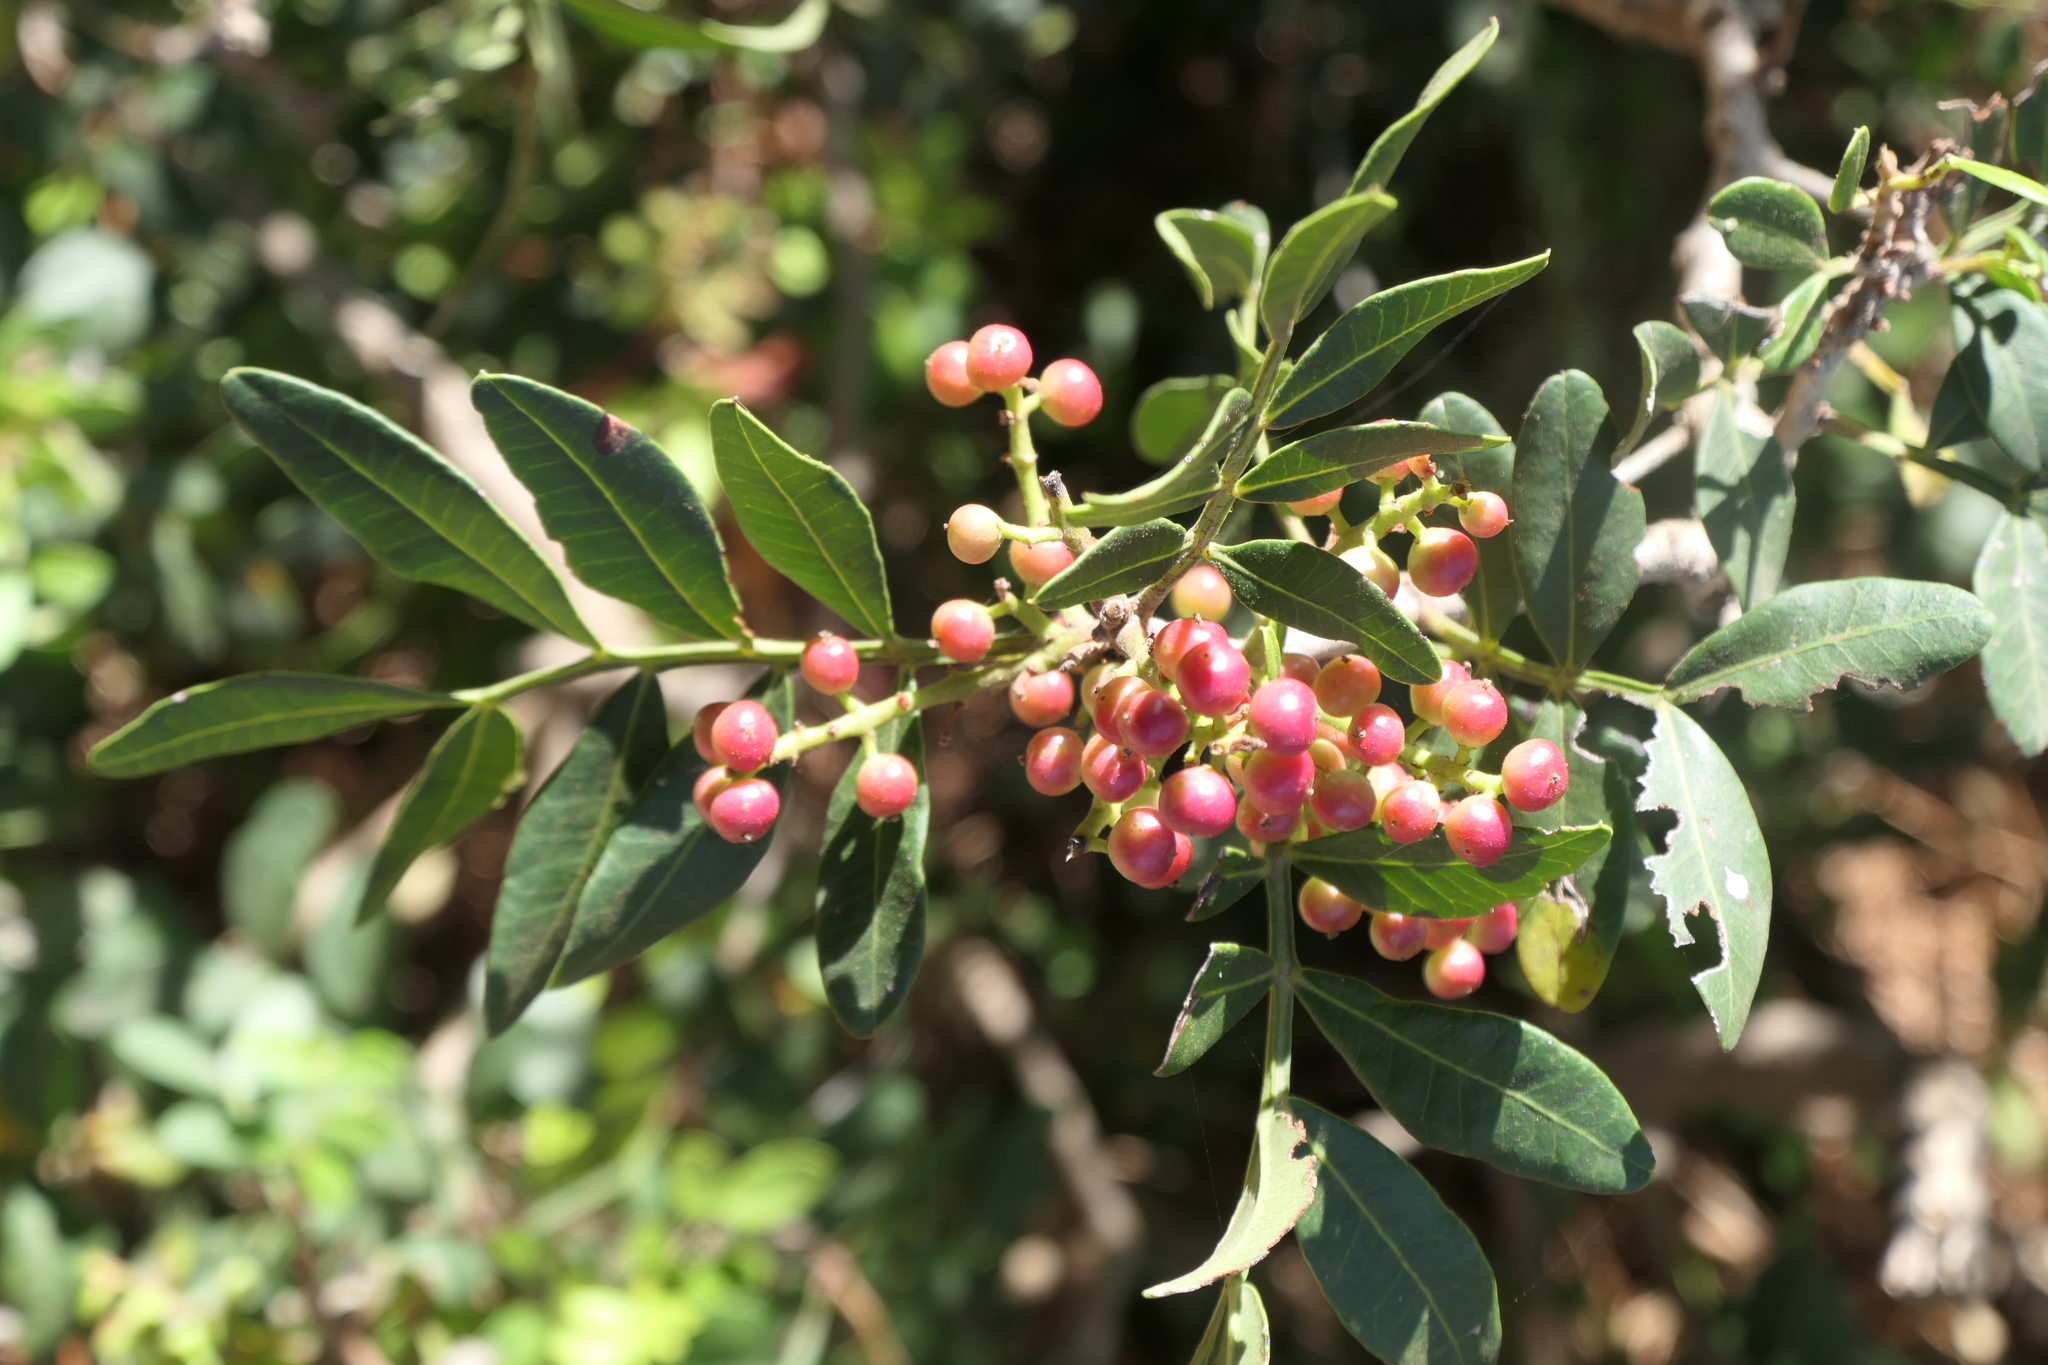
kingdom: Plantae
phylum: Tracheophyta
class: Magnoliopsida
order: Sapindales
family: Anacardiaceae
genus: Pistacia
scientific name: Pistacia lentiscus
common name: Lentisk
